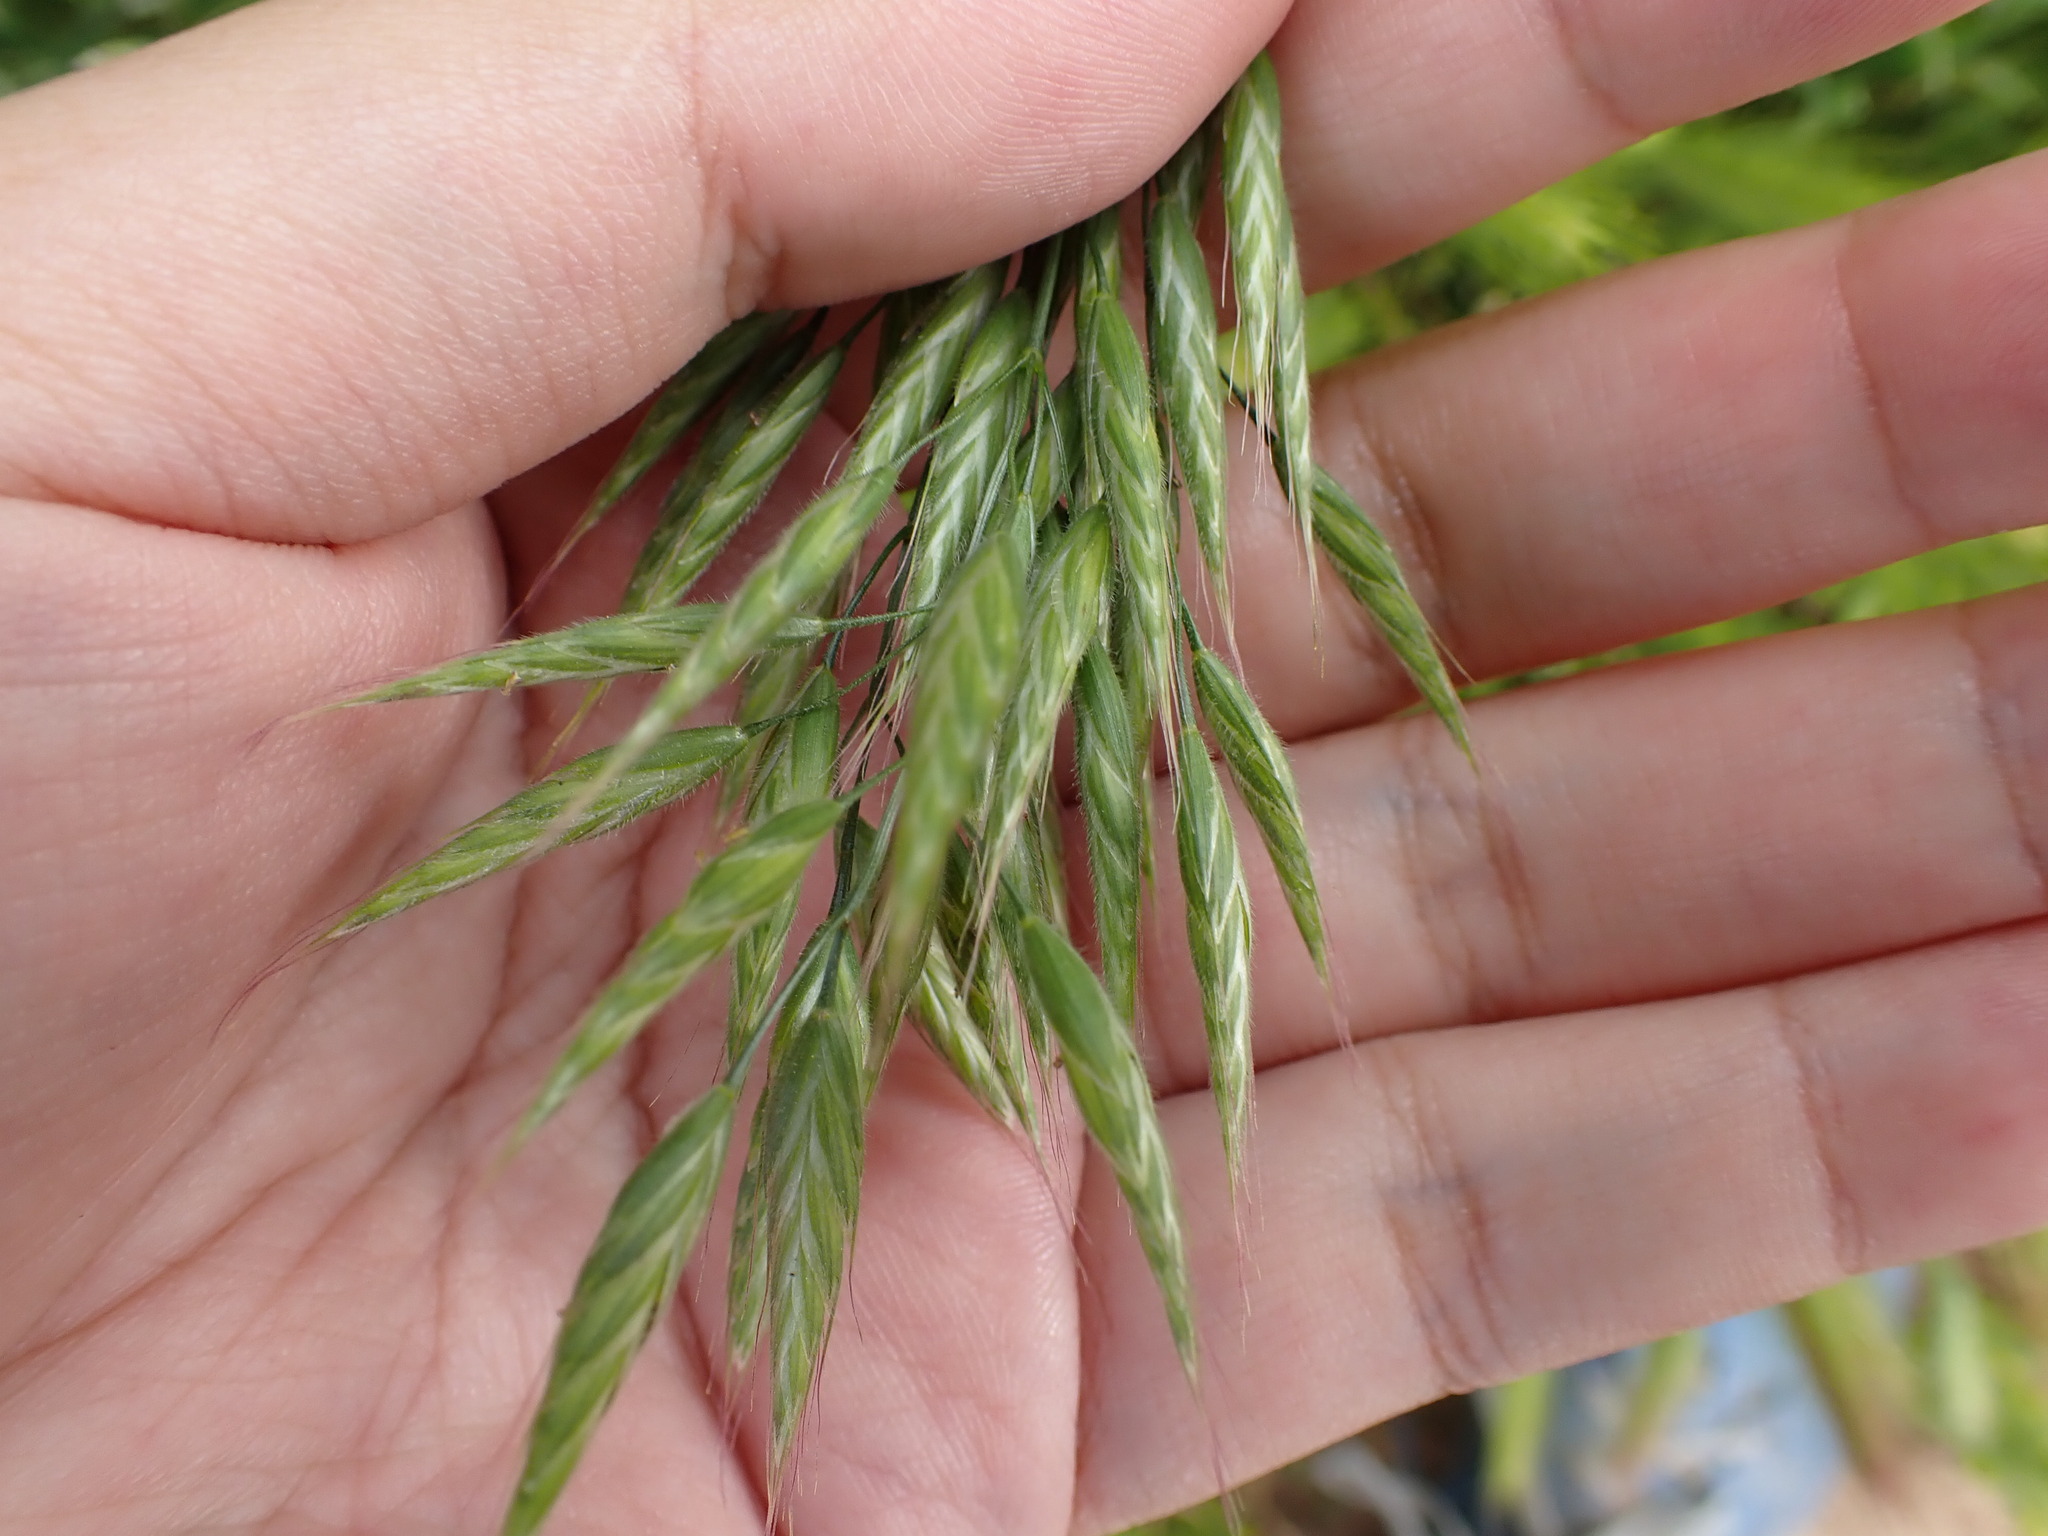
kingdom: Plantae
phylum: Tracheophyta
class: Liliopsida
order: Poales
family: Poaceae
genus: Bromus
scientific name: Bromus hordeaceus
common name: Soft brome
